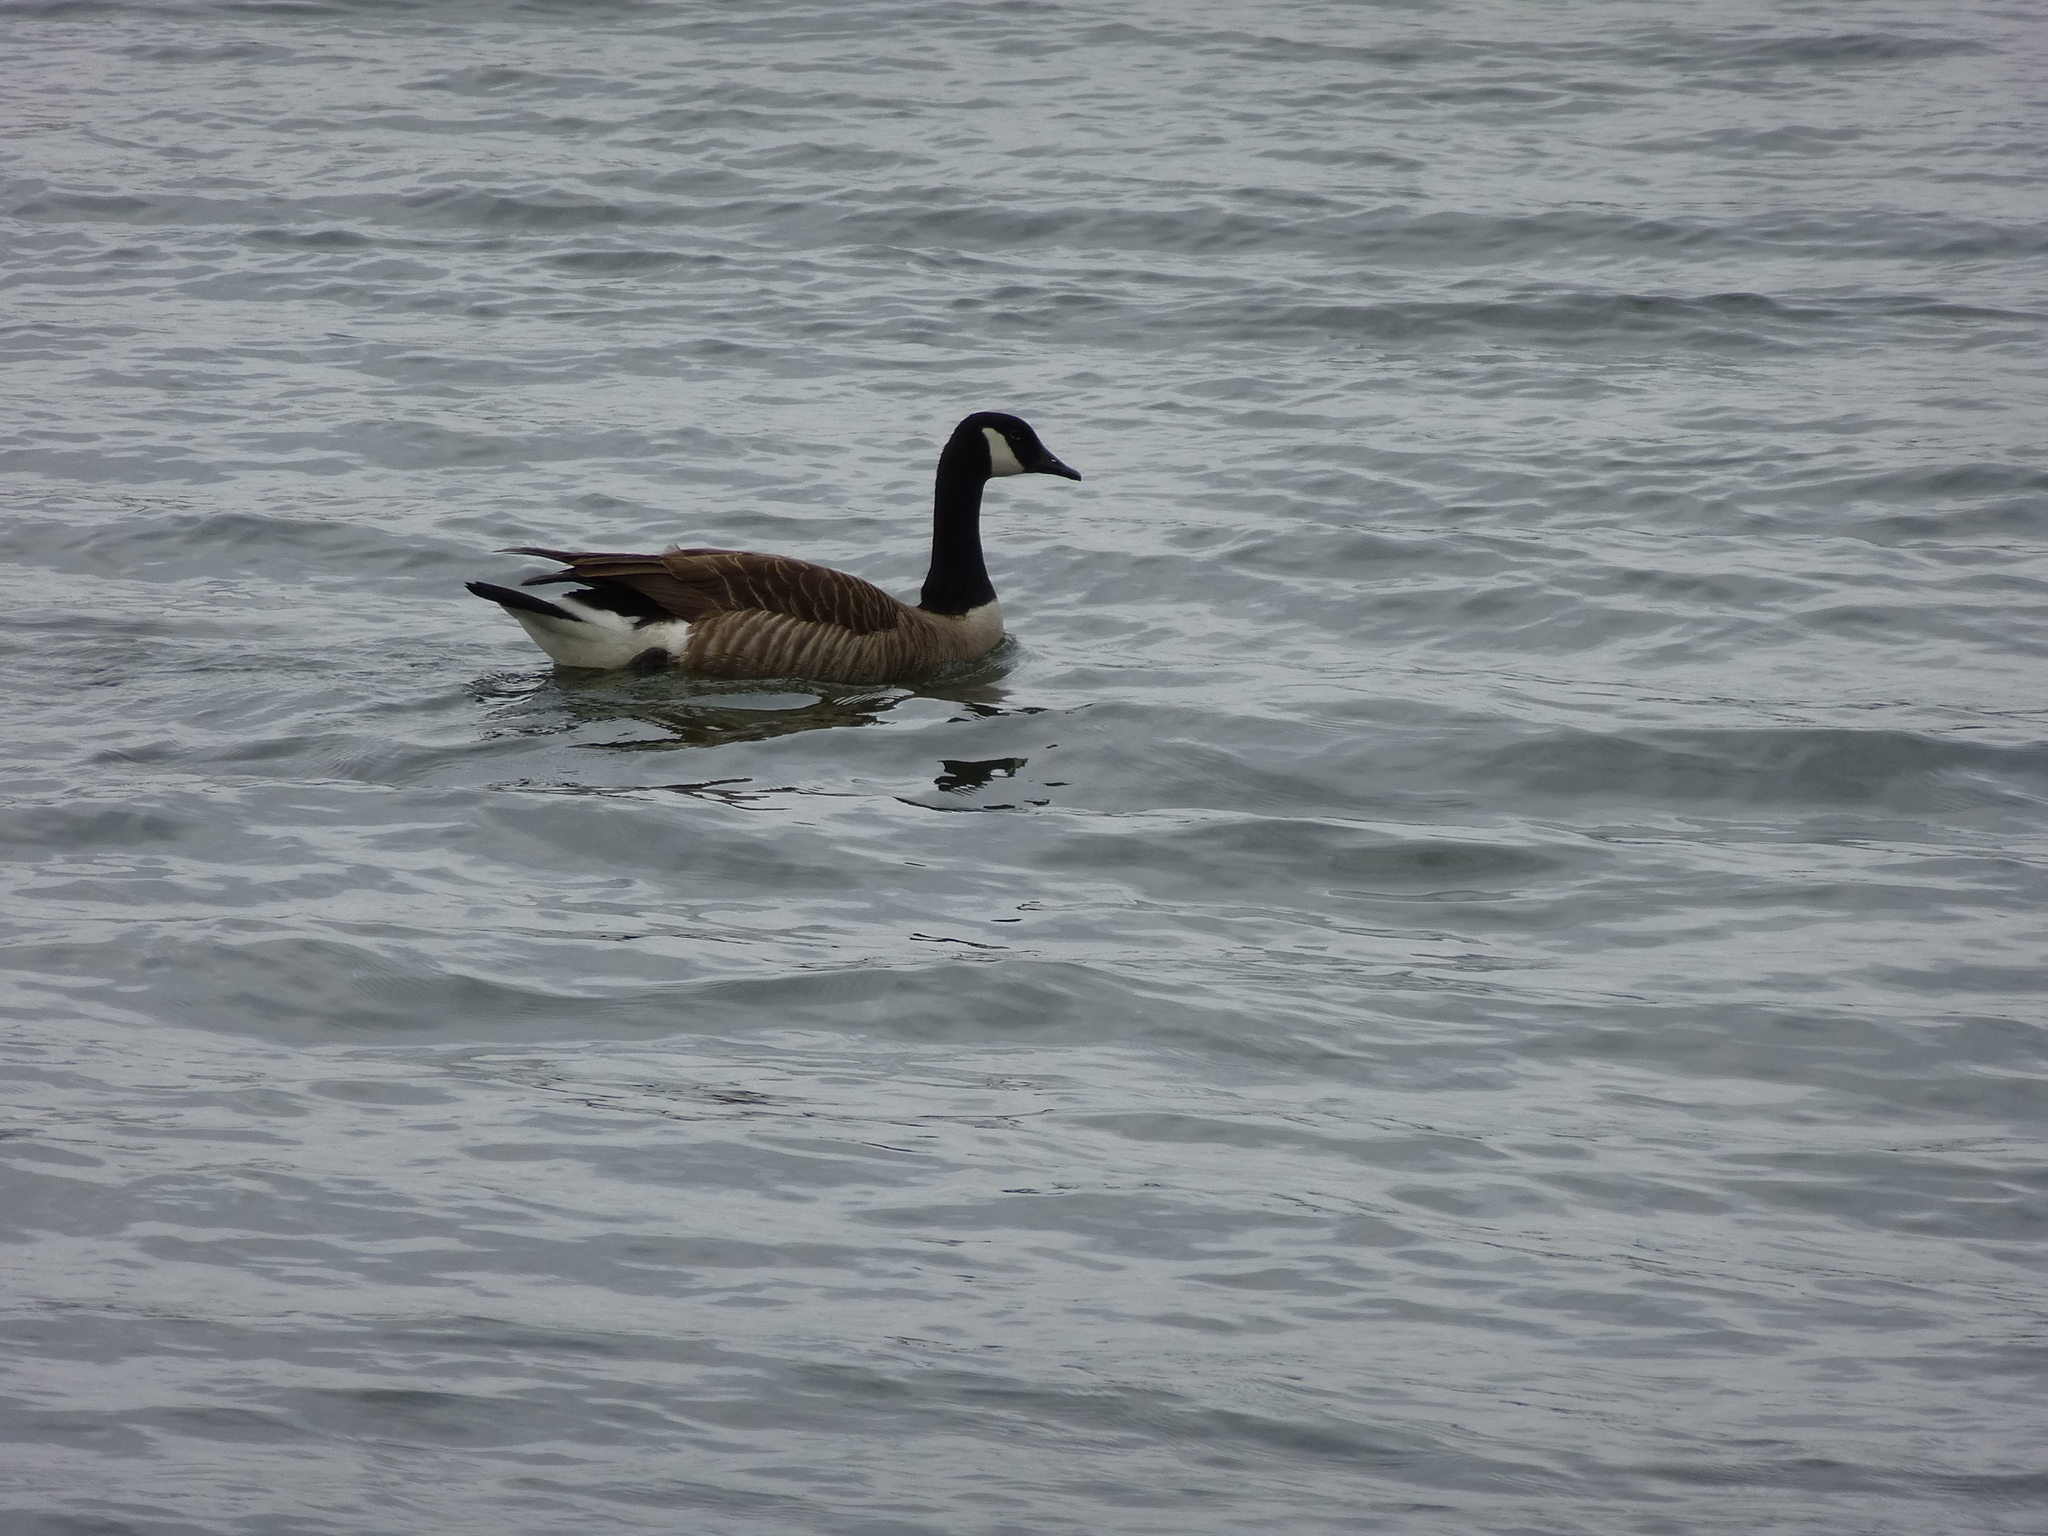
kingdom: Animalia
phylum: Chordata
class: Aves
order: Anseriformes
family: Anatidae
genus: Branta
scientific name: Branta canadensis
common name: Canada goose
